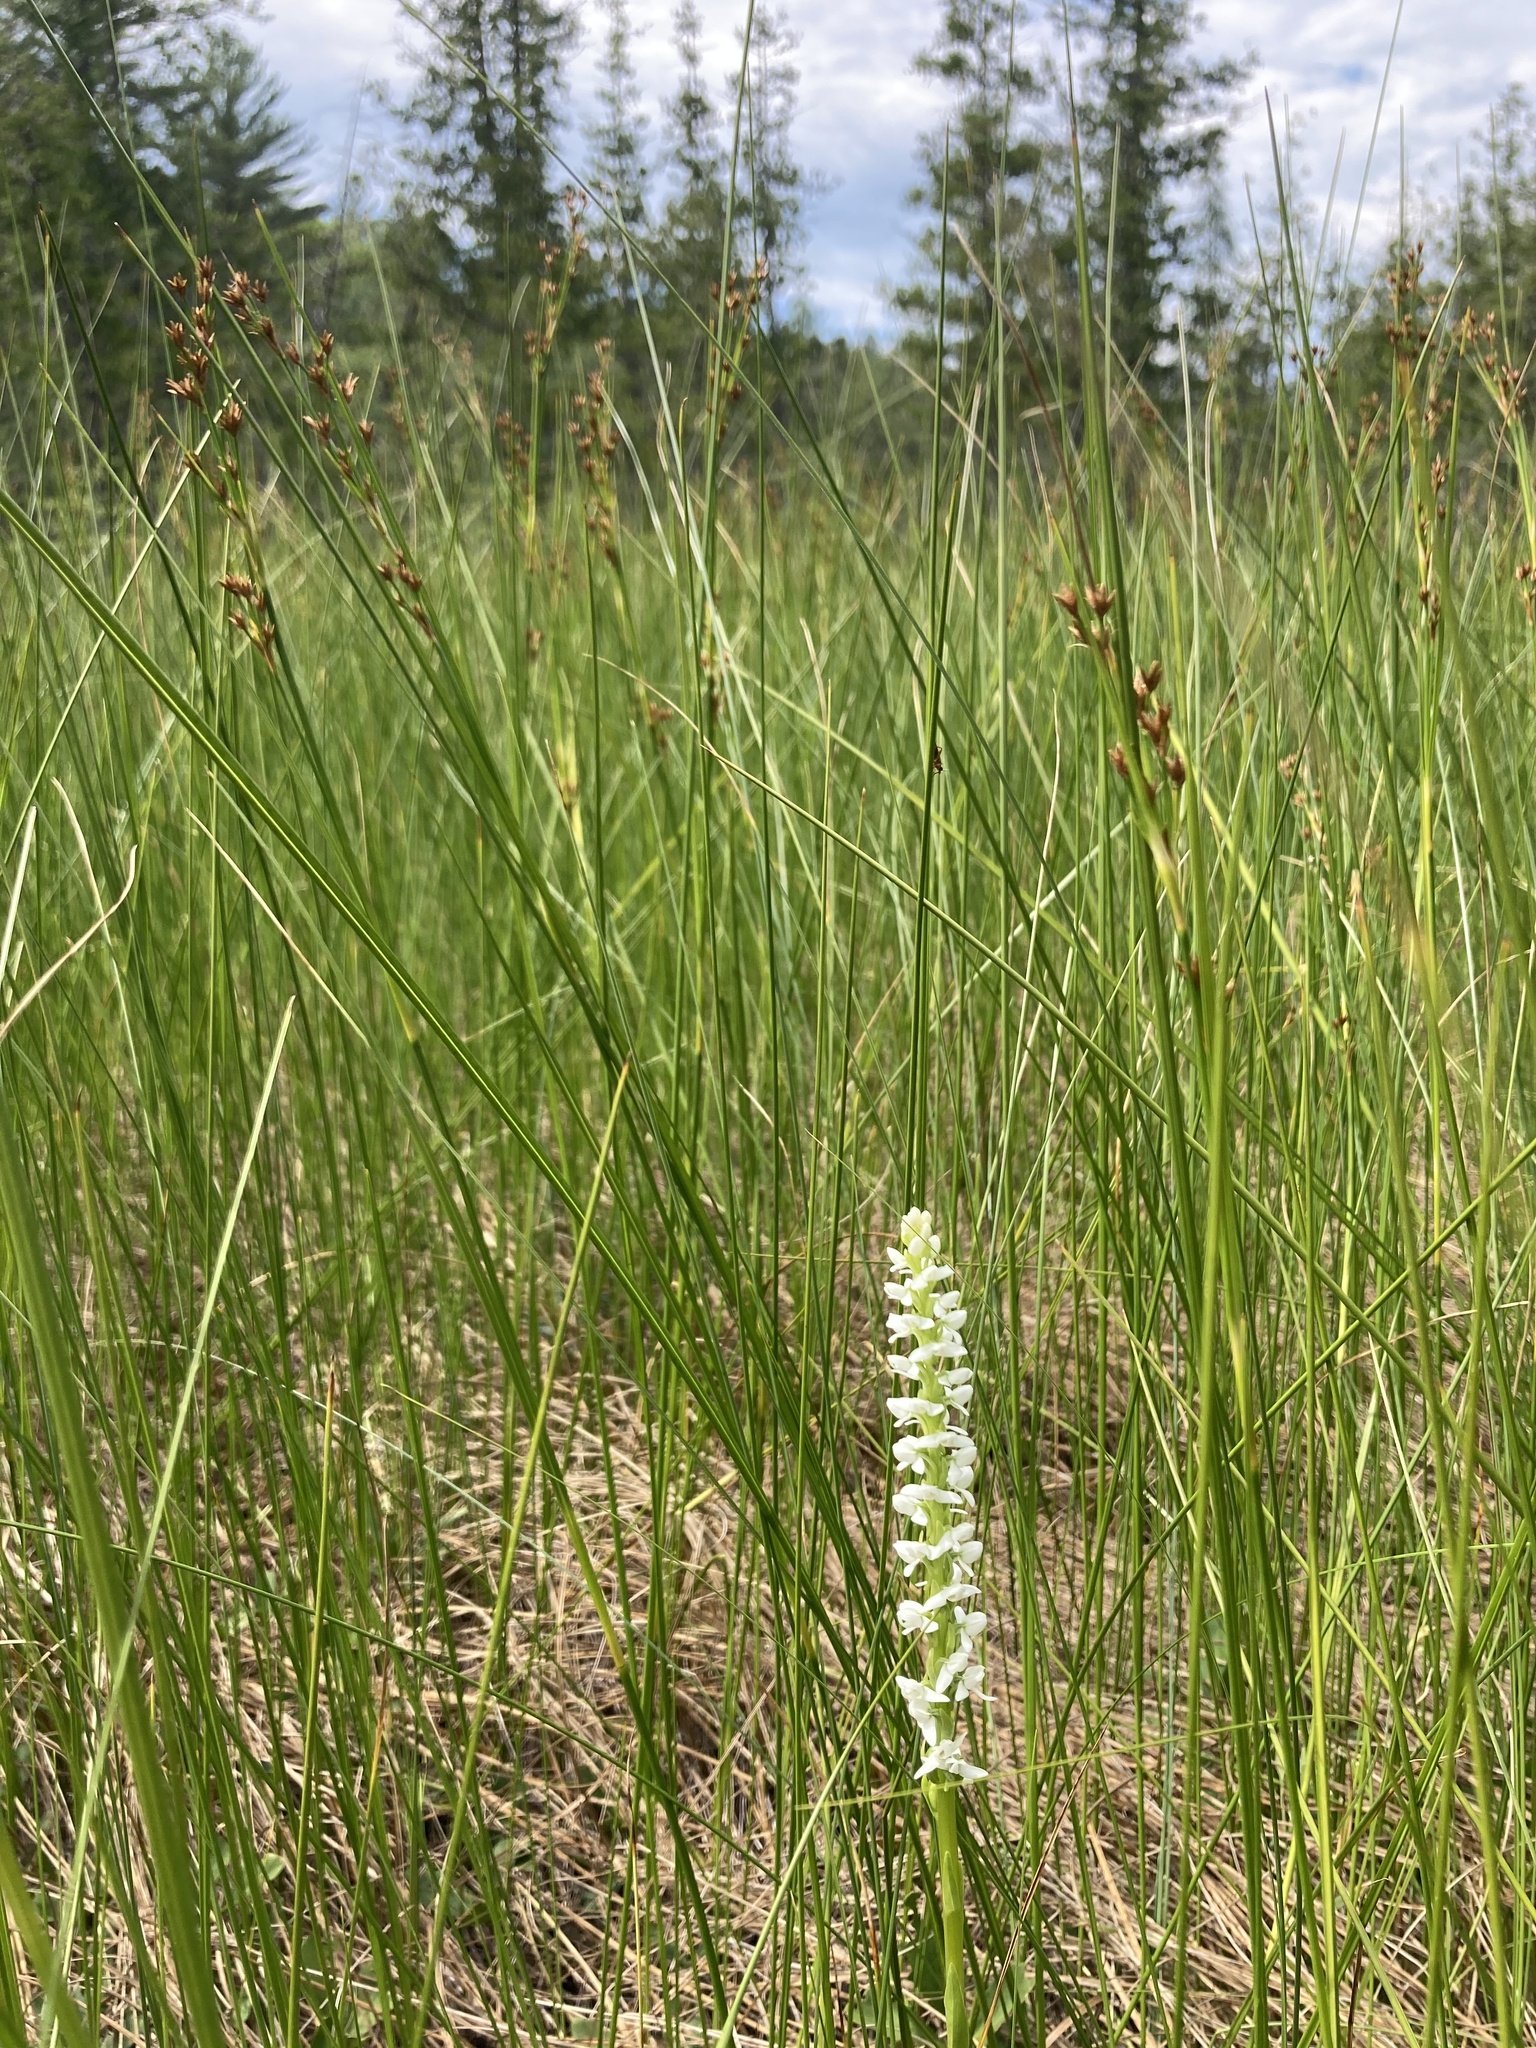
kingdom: Plantae
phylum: Tracheophyta
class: Liliopsida
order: Poales
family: Cyperaceae
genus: Cladium
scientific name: Cladium mariscoides
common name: Smooth sawgrass
